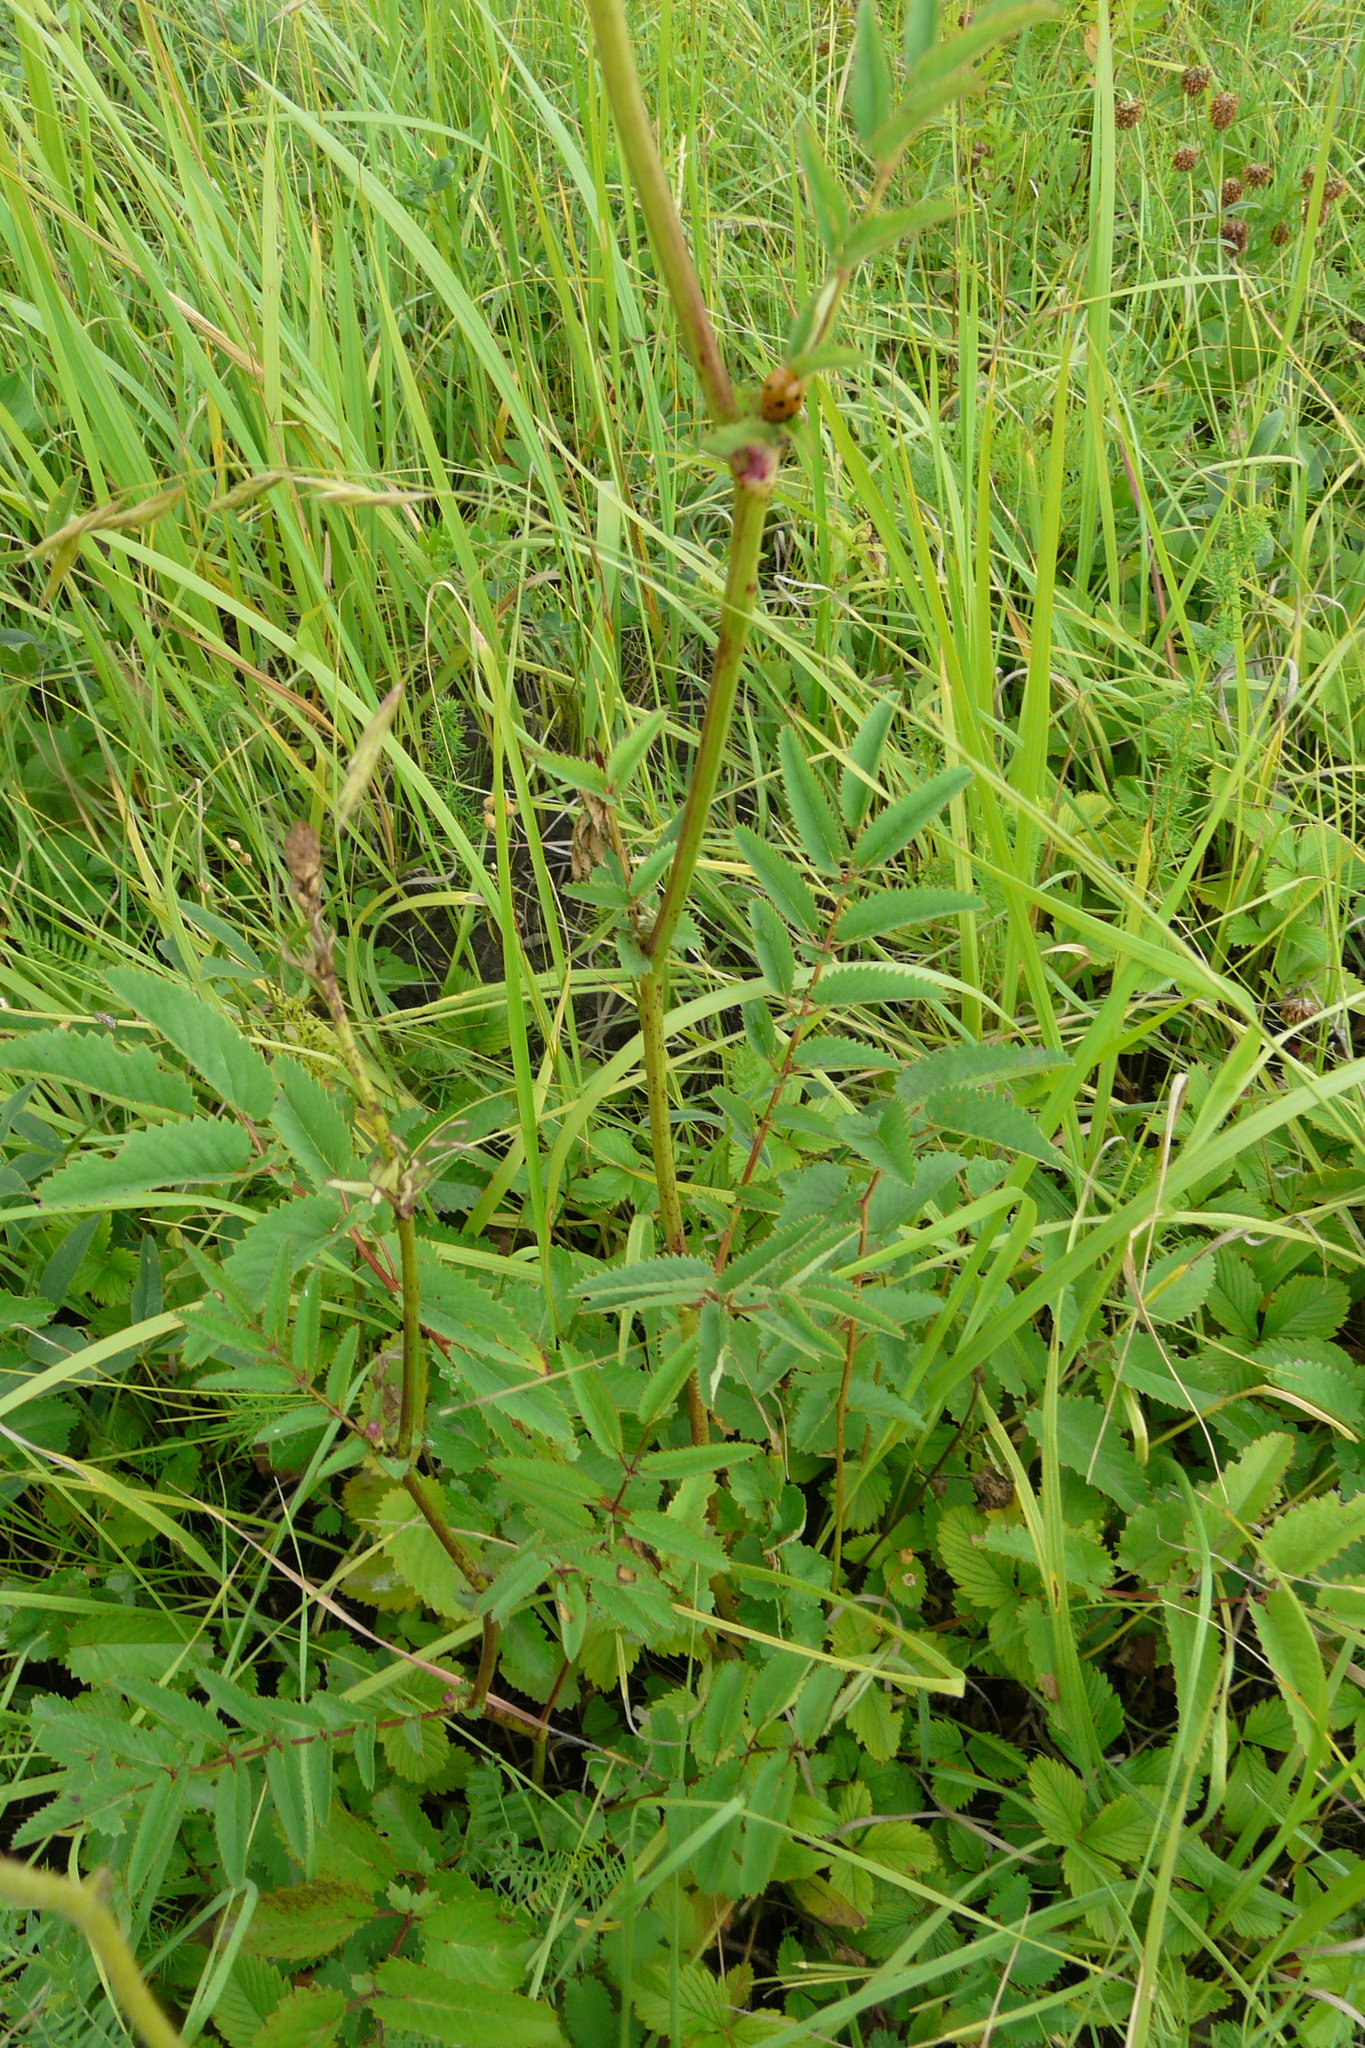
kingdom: Plantae
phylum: Tracheophyta
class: Magnoliopsida
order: Rosales
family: Rosaceae
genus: Sanguisorba
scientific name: Sanguisorba officinalis
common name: Great burnet
